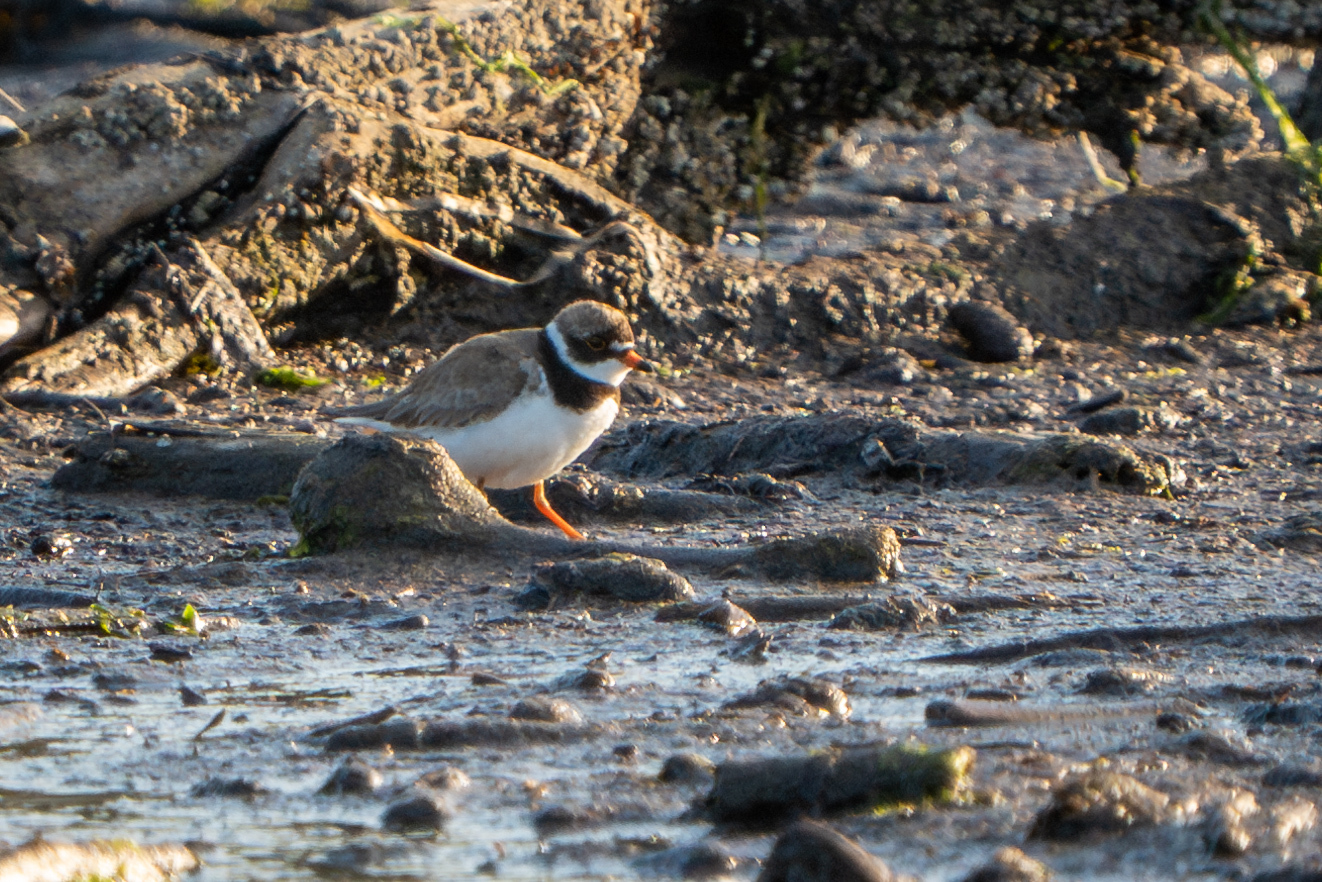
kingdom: Animalia
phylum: Chordata
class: Aves
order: Charadriiformes
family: Charadriidae
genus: Charadrius
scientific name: Charadrius semipalmatus
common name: Semipalmated plover
